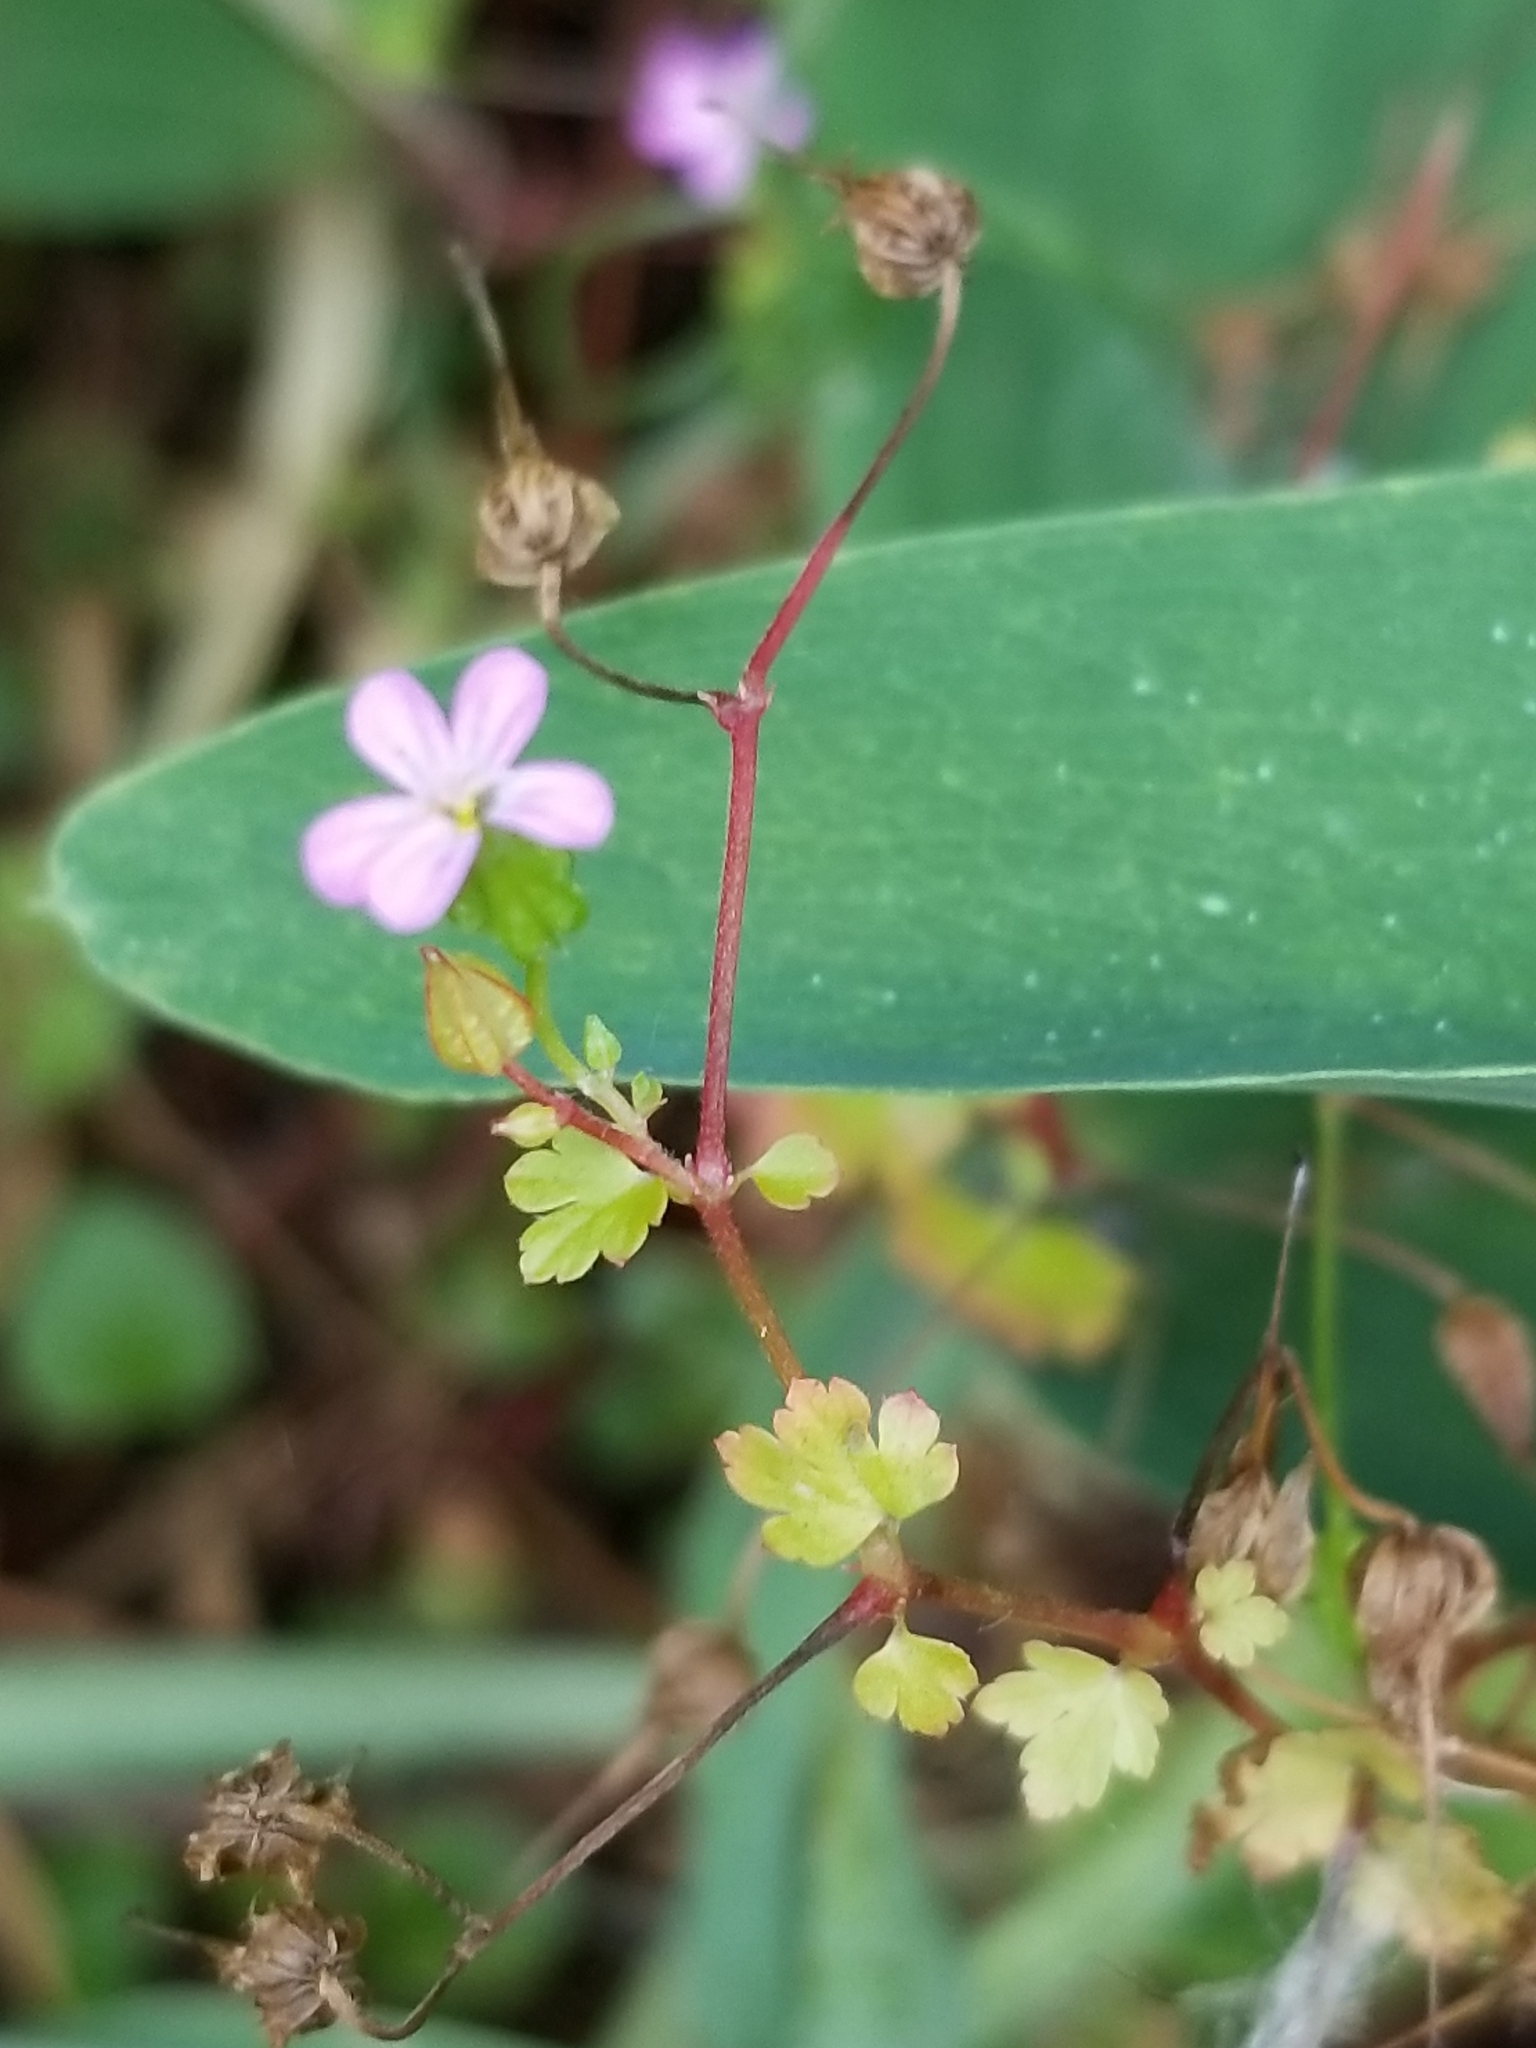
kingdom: Plantae
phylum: Tracheophyta
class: Magnoliopsida
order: Geraniales
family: Geraniaceae
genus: Geranium
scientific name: Geranium robertianum
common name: Herb-robert
